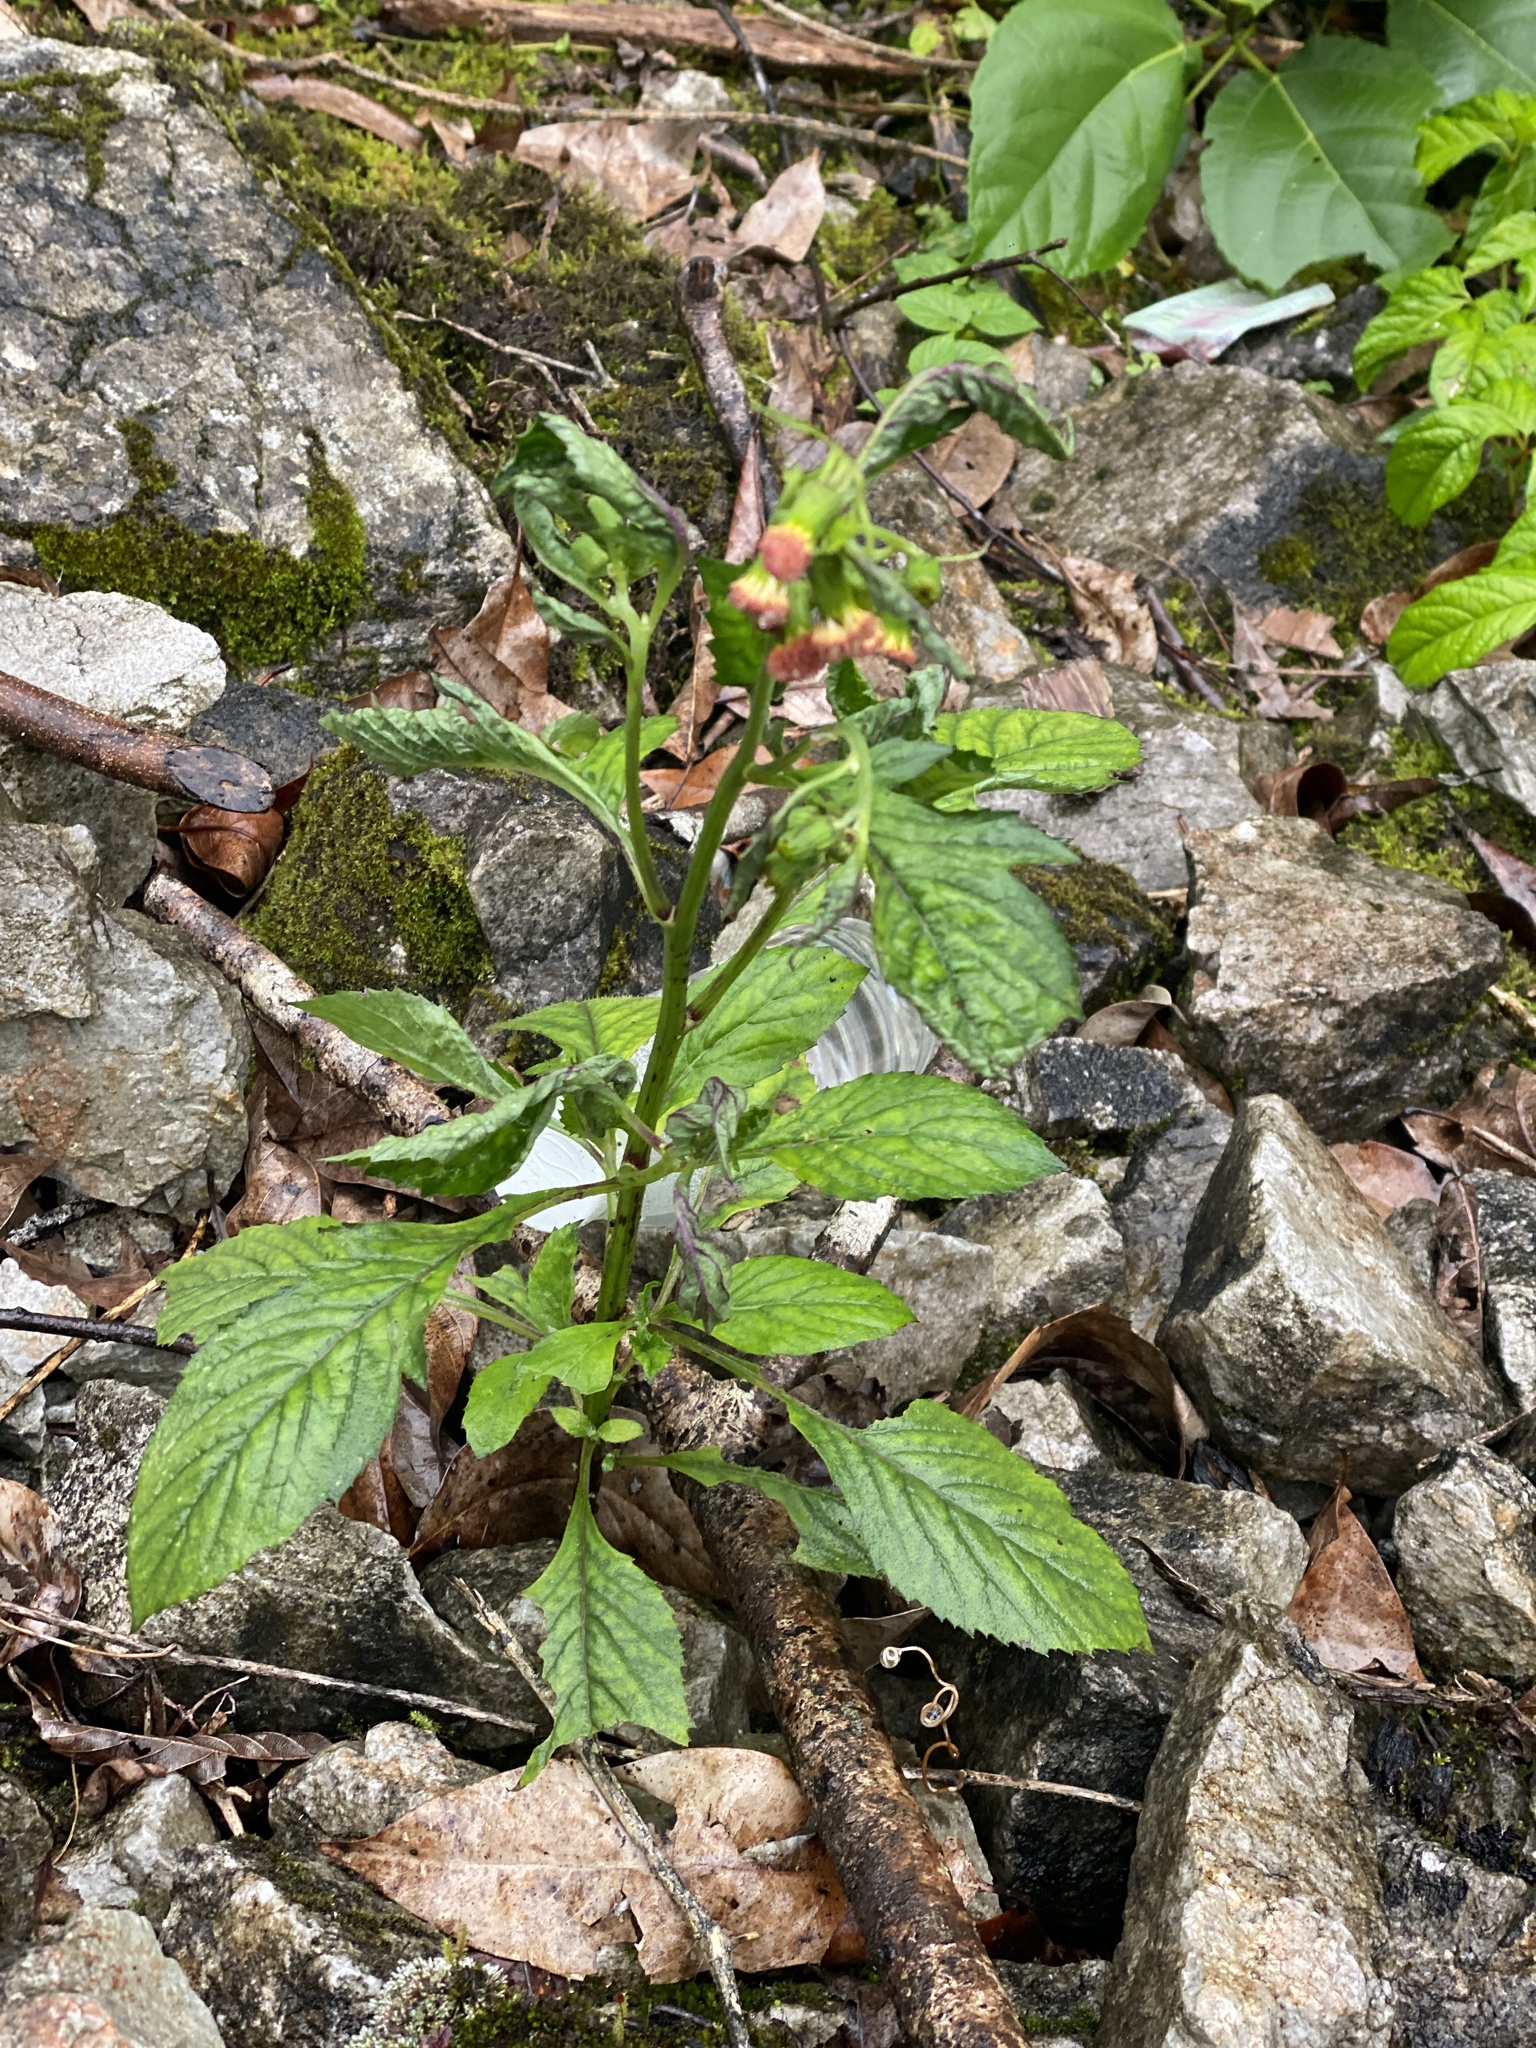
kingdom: Plantae
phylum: Tracheophyta
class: Magnoliopsida
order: Asterales
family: Asteraceae
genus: Crassocephalum
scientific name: Crassocephalum crepidioides
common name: Redflower ragleaf
